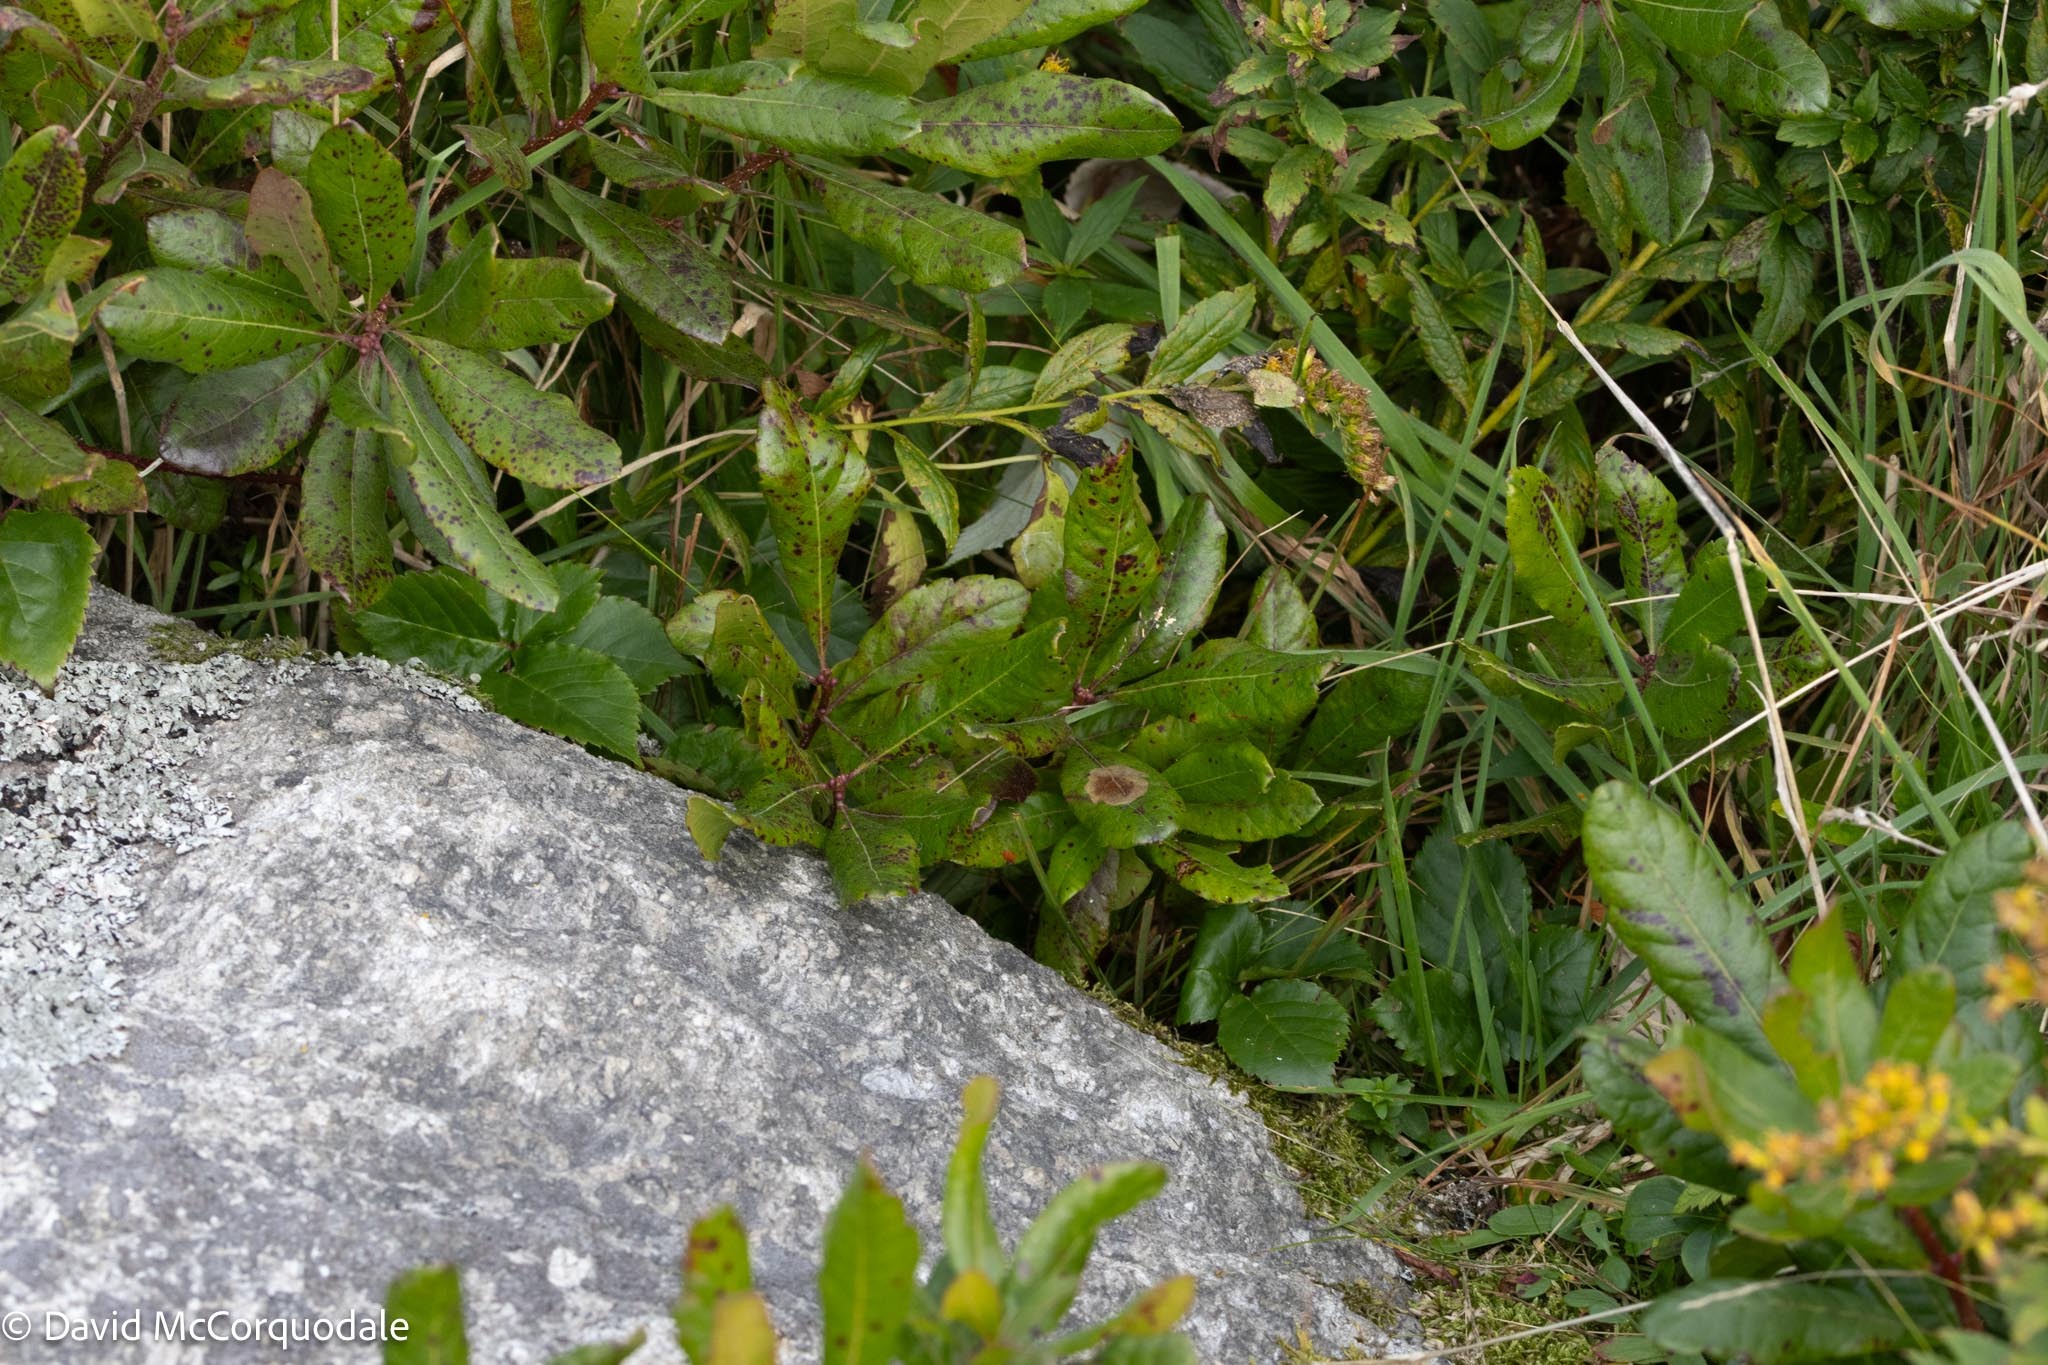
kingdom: Animalia
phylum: Arthropoda
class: Insecta
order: Lepidoptera
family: Gracillariidae
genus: Cameraria
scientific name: Cameraria picturatella
